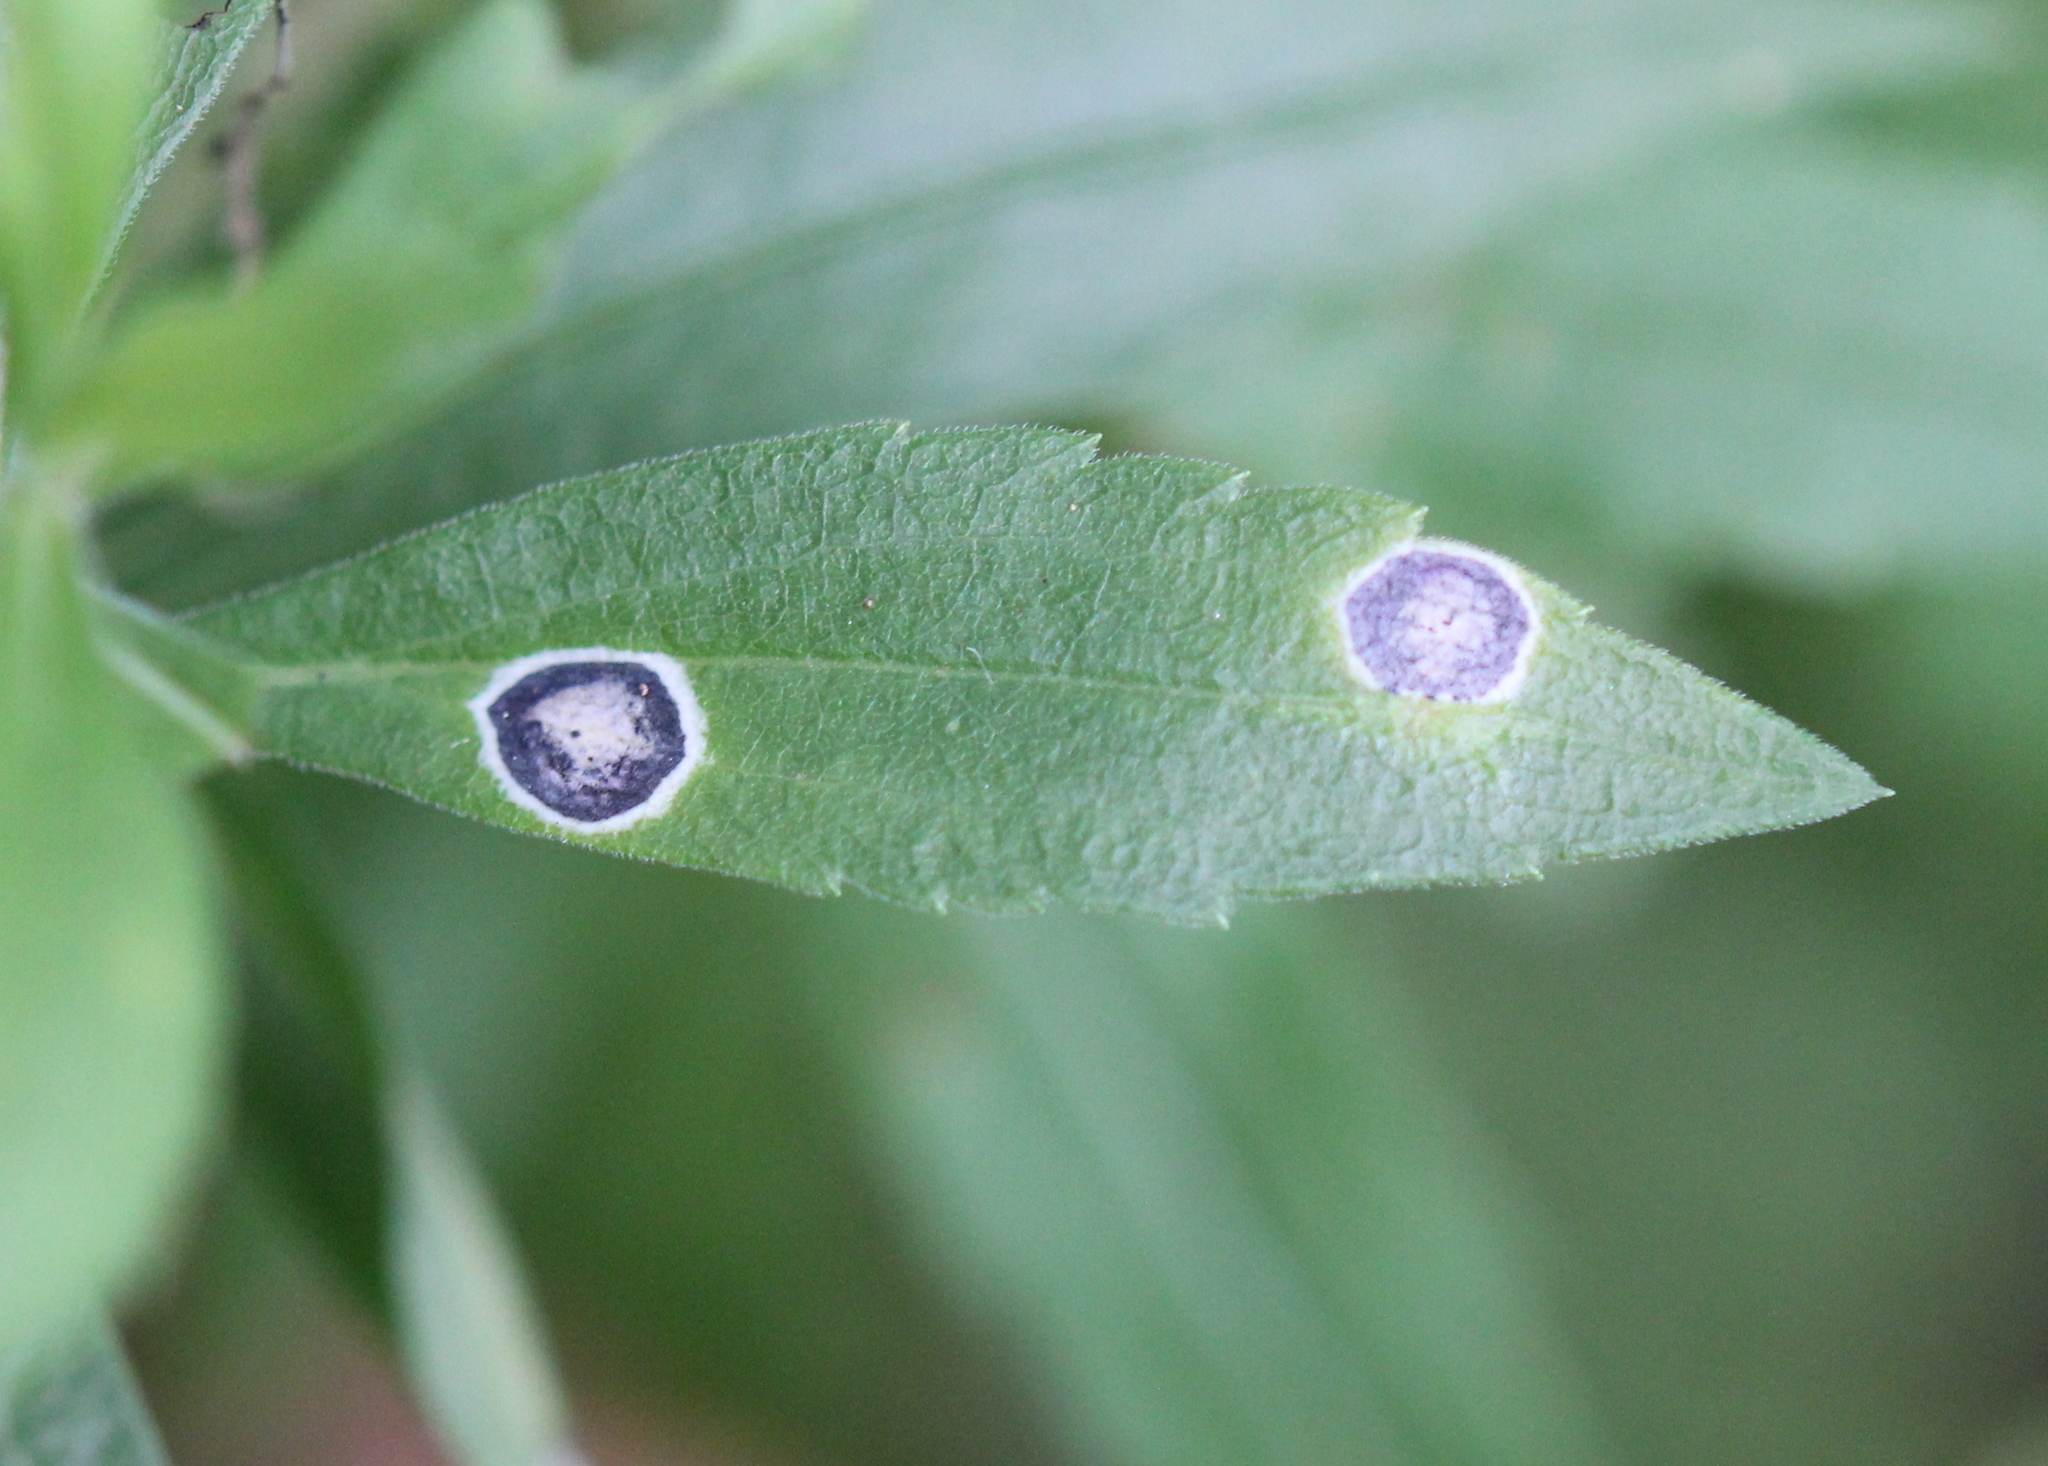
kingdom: Animalia
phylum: Arthropoda
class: Insecta
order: Diptera
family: Cecidomyiidae
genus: Asteromyia
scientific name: Asteromyia carbonifera
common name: Carbonifera goldenrod gall midge
